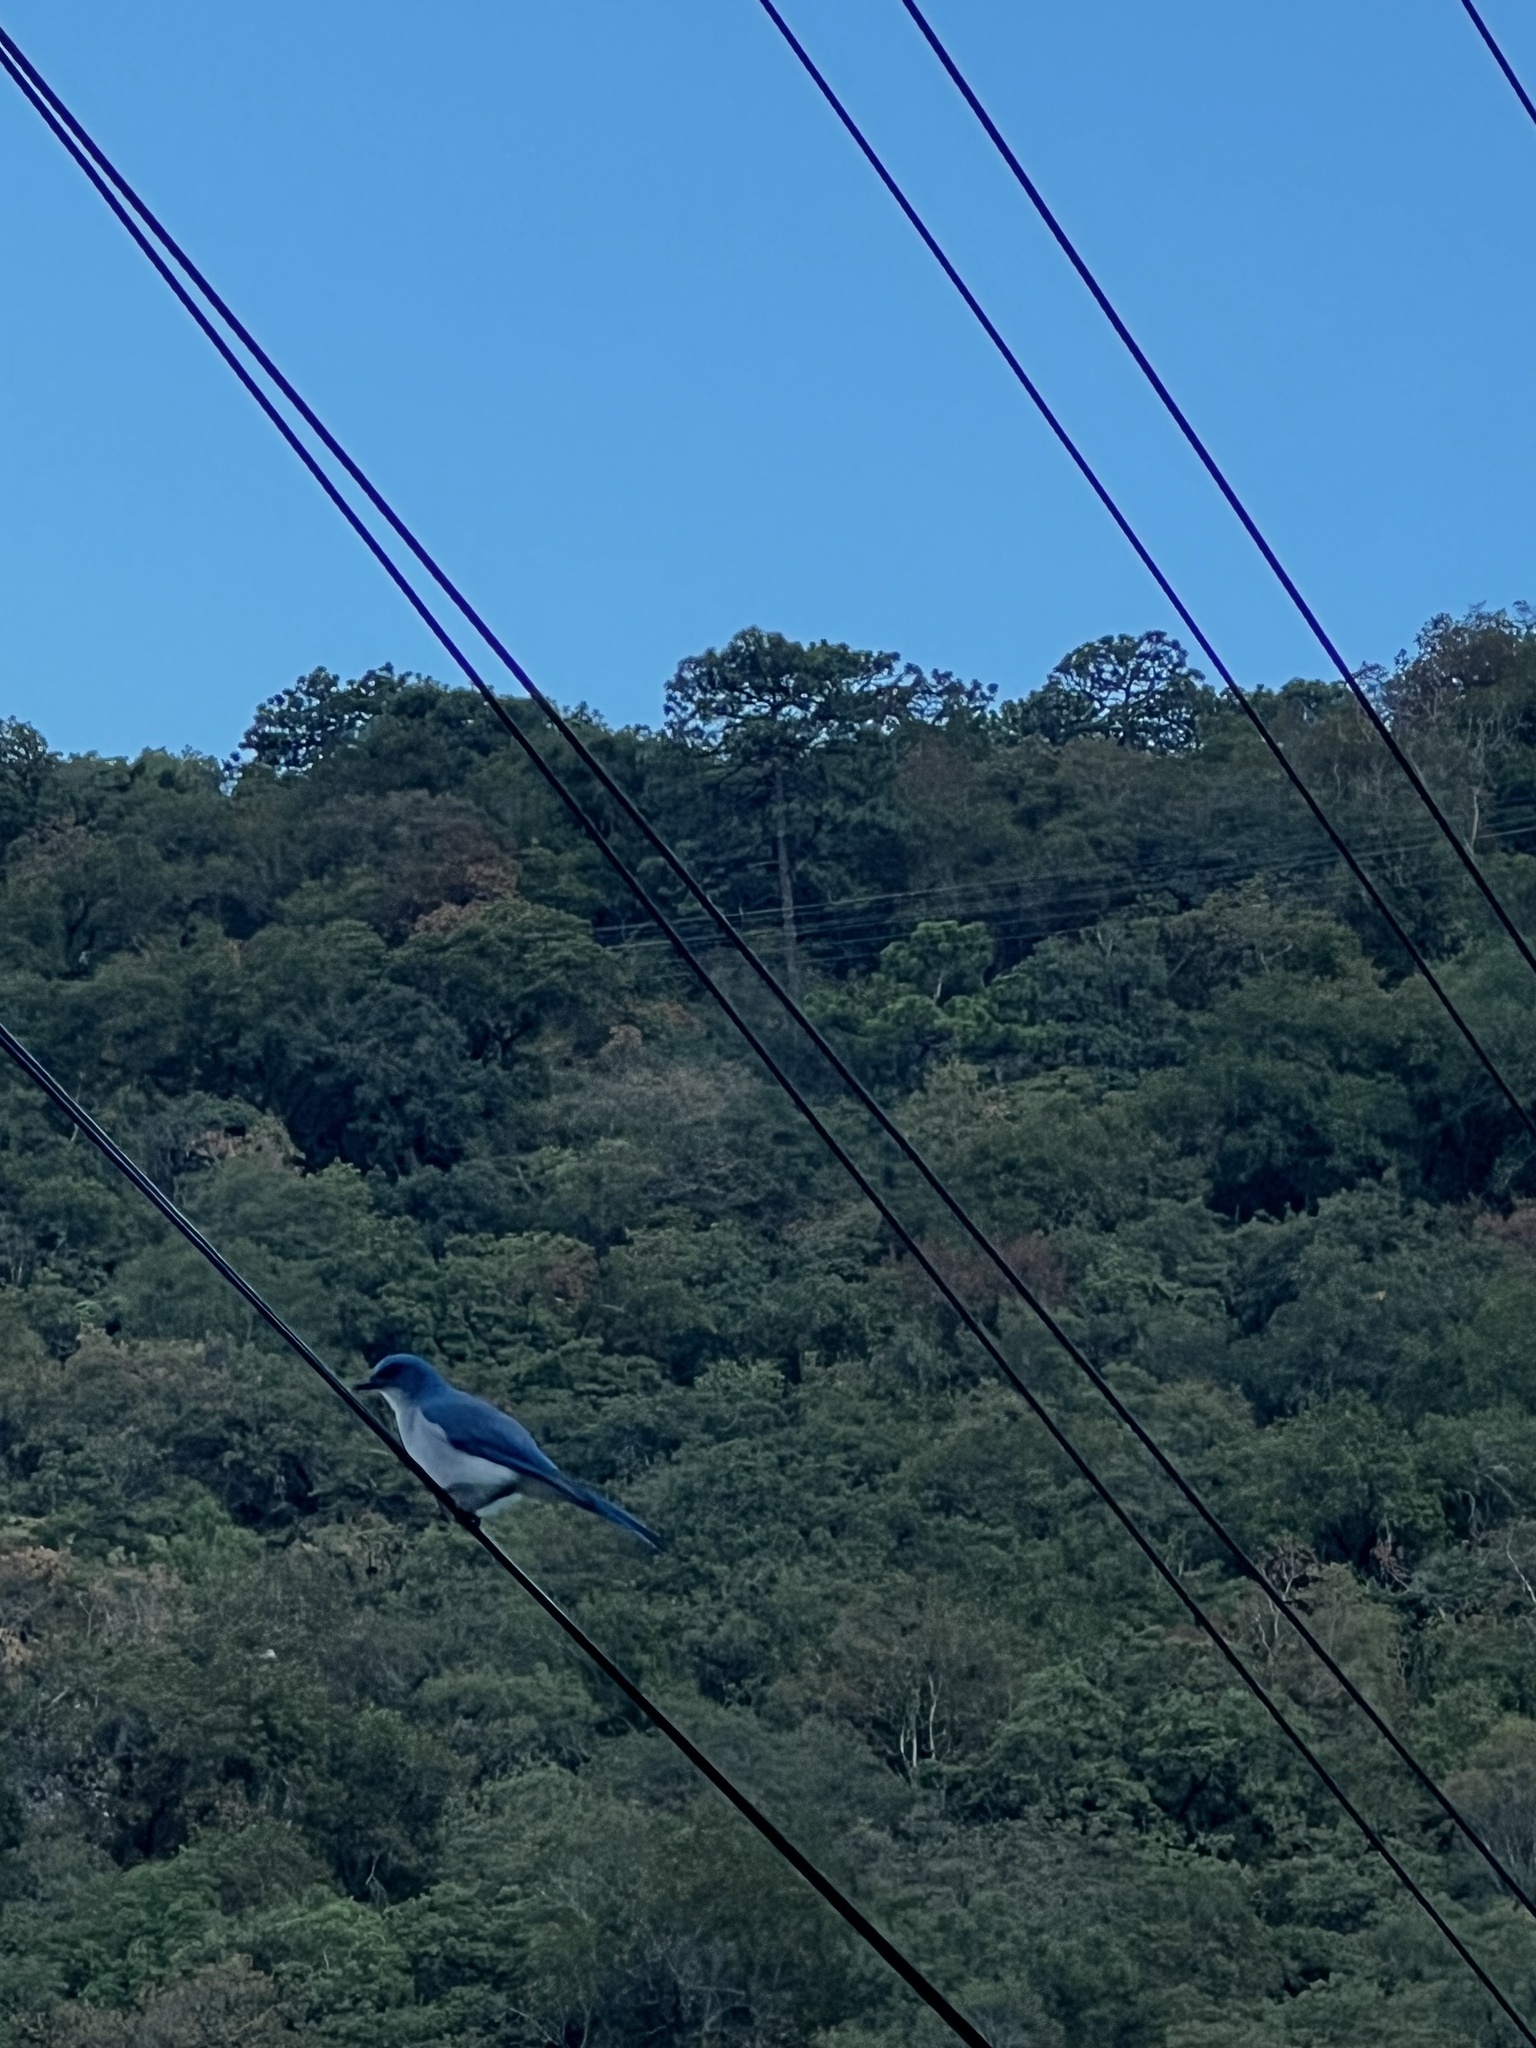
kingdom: Animalia
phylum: Chordata
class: Aves
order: Passeriformes
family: Corvidae
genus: Aphelocoma
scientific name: Aphelocoma wollweberi
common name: Mexican jay
